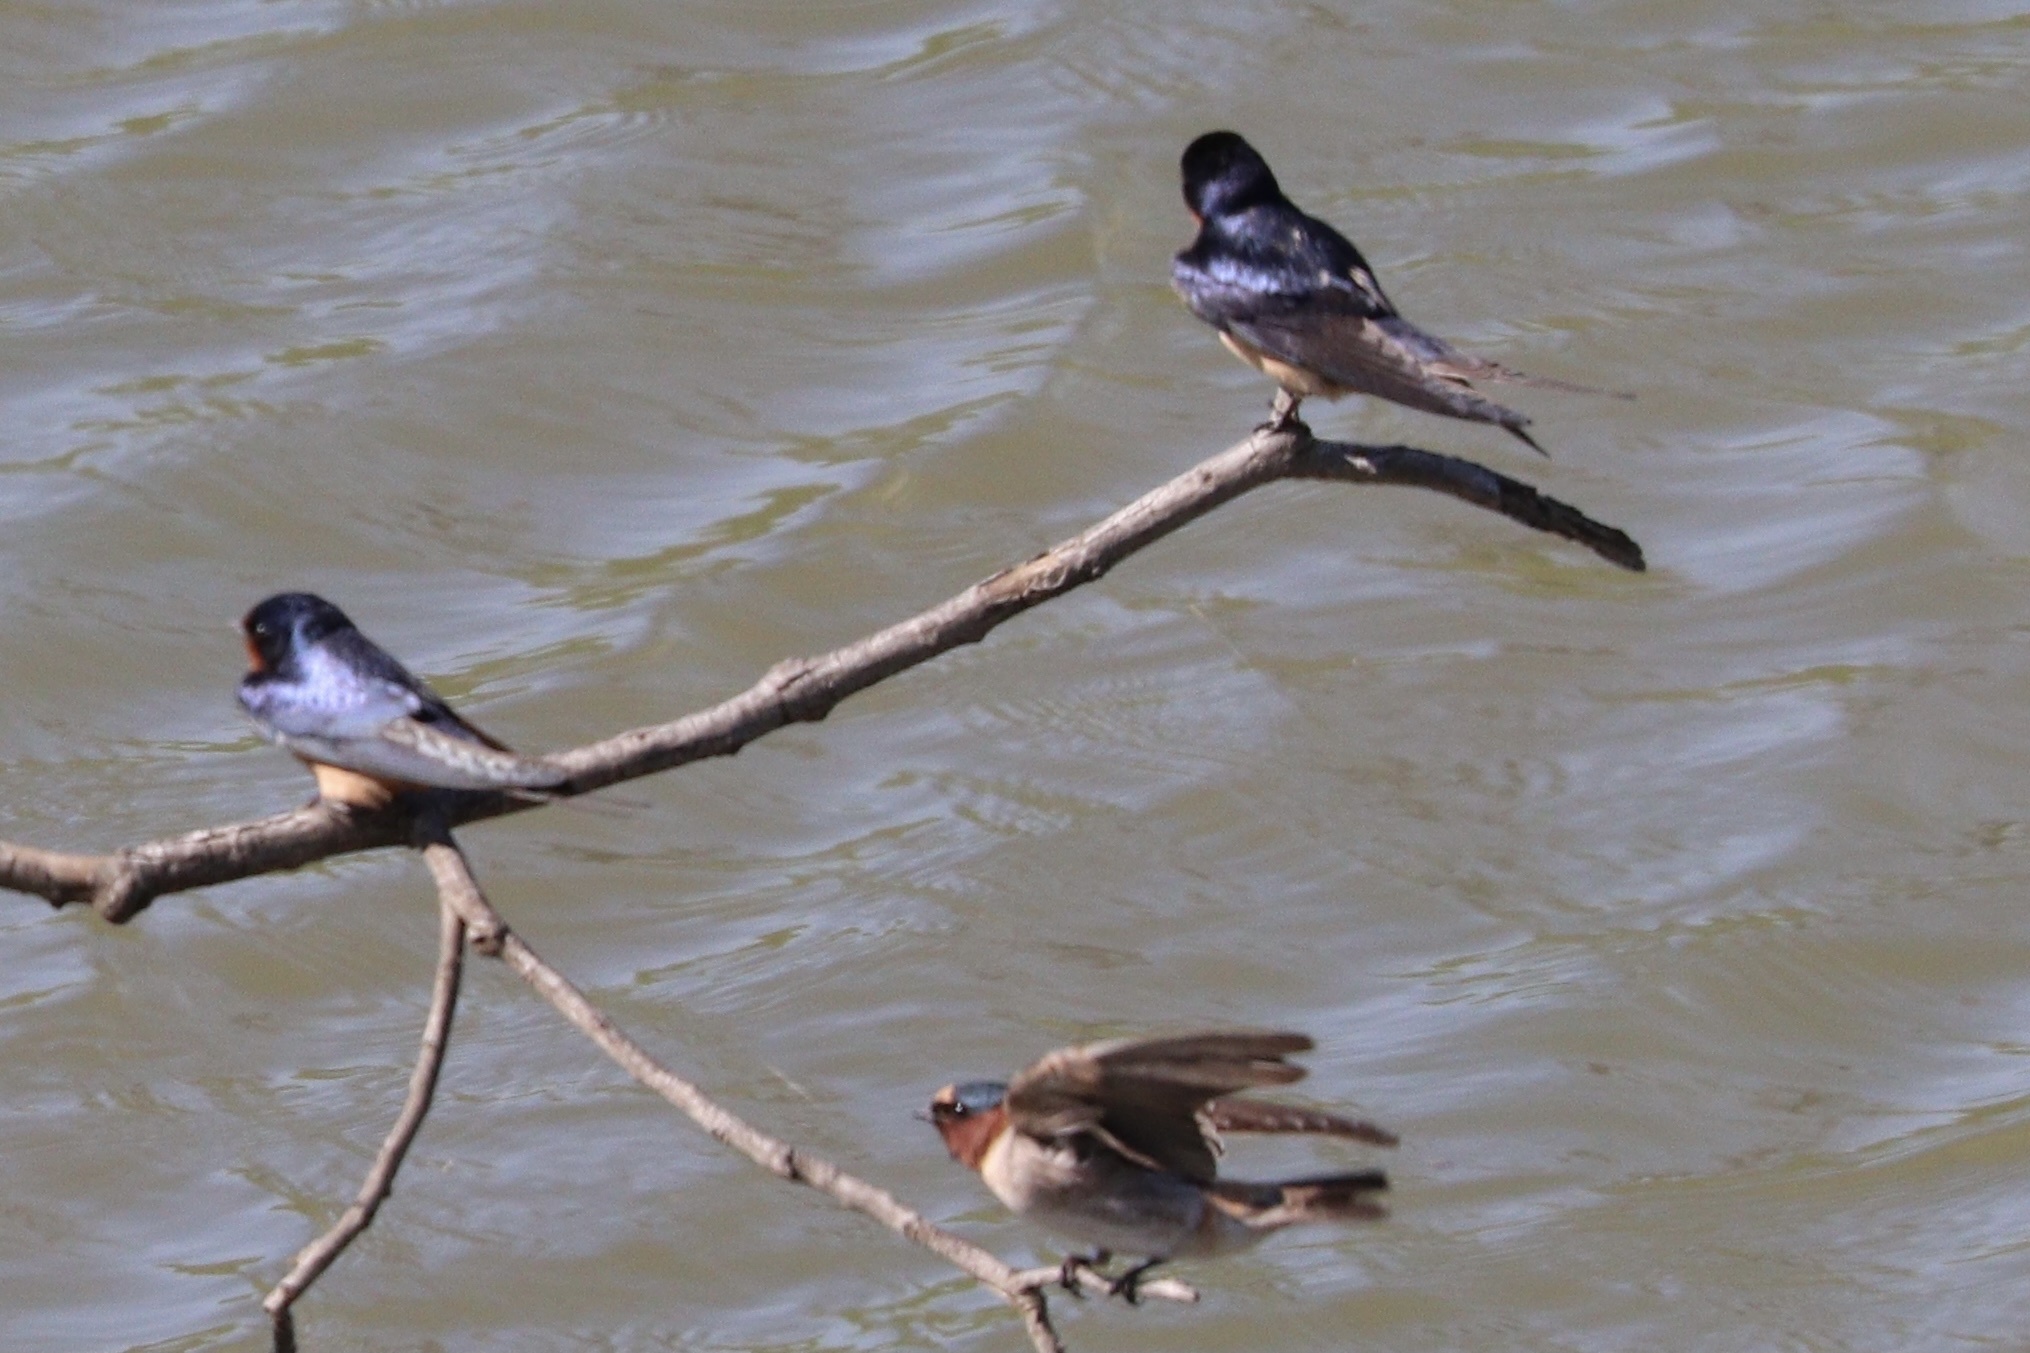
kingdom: Animalia
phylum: Chordata
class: Aves
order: Passeriformes
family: Hirundinidae
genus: Hirundo
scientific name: Hirundo rustica
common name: Barn swallow
